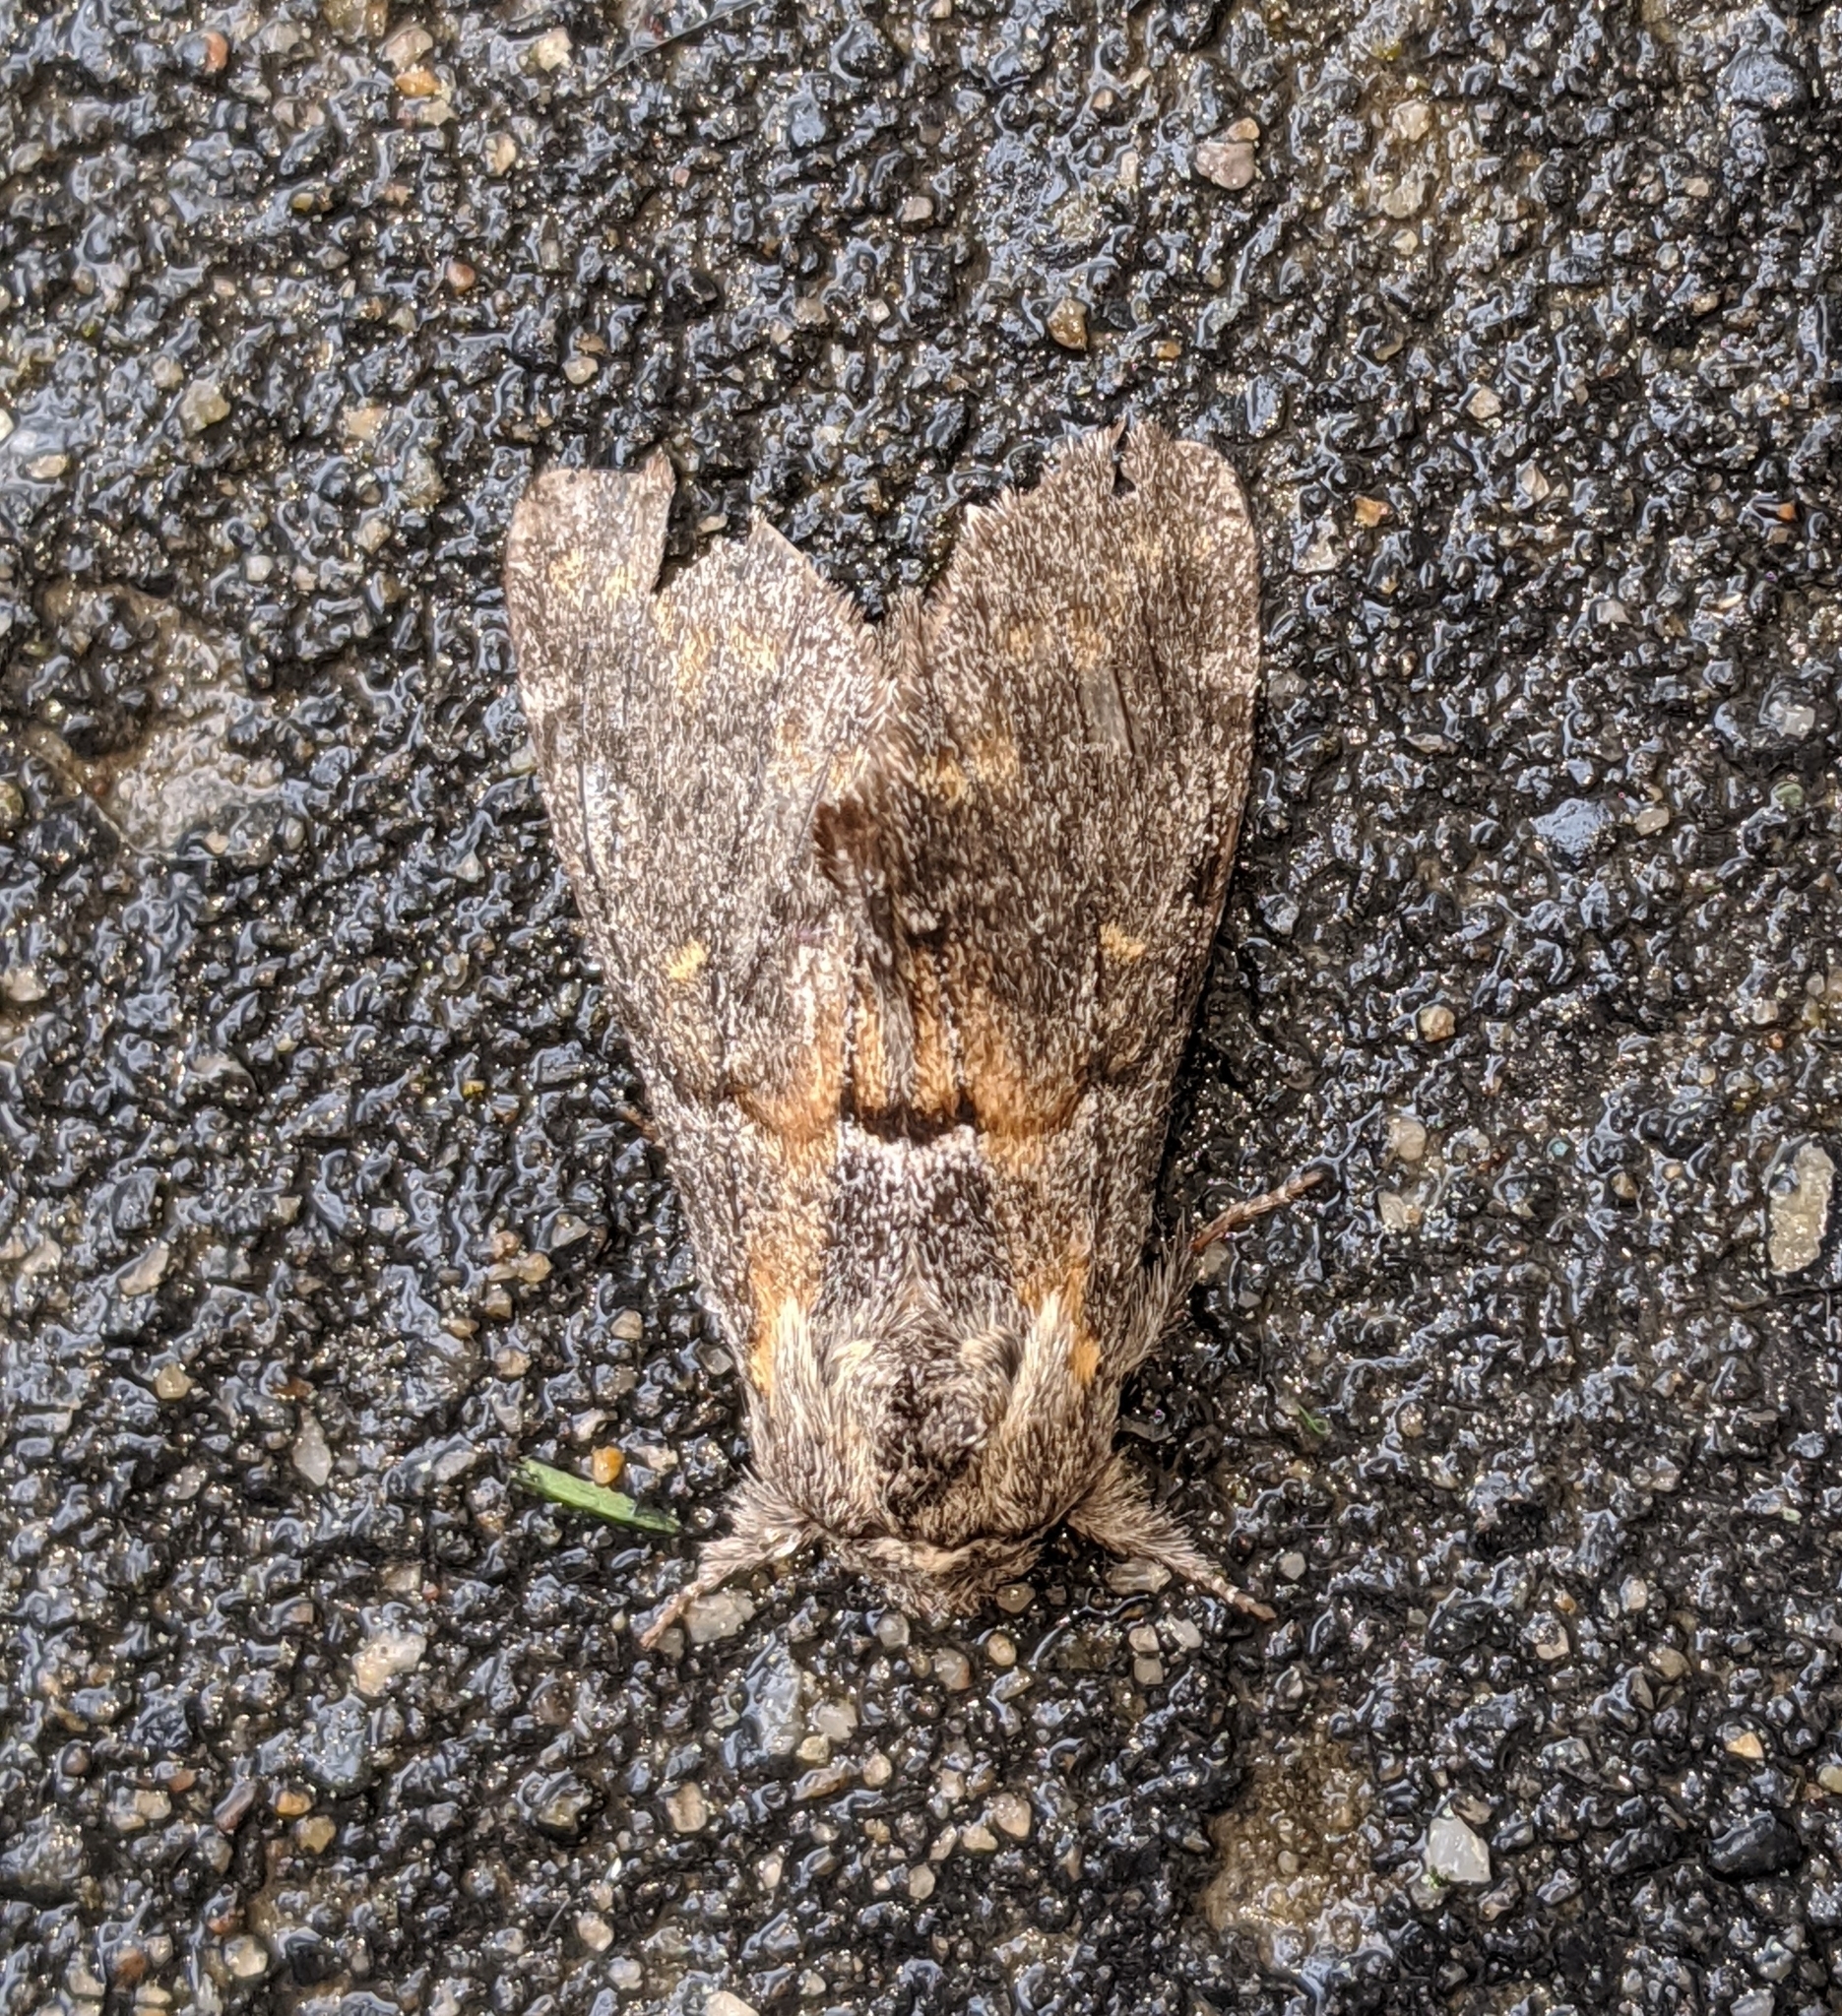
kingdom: Animalia
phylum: Arthropoda
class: Insecta
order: Lepidoptera
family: Notodontidae
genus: Gluphisia
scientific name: Gluphisia severa
